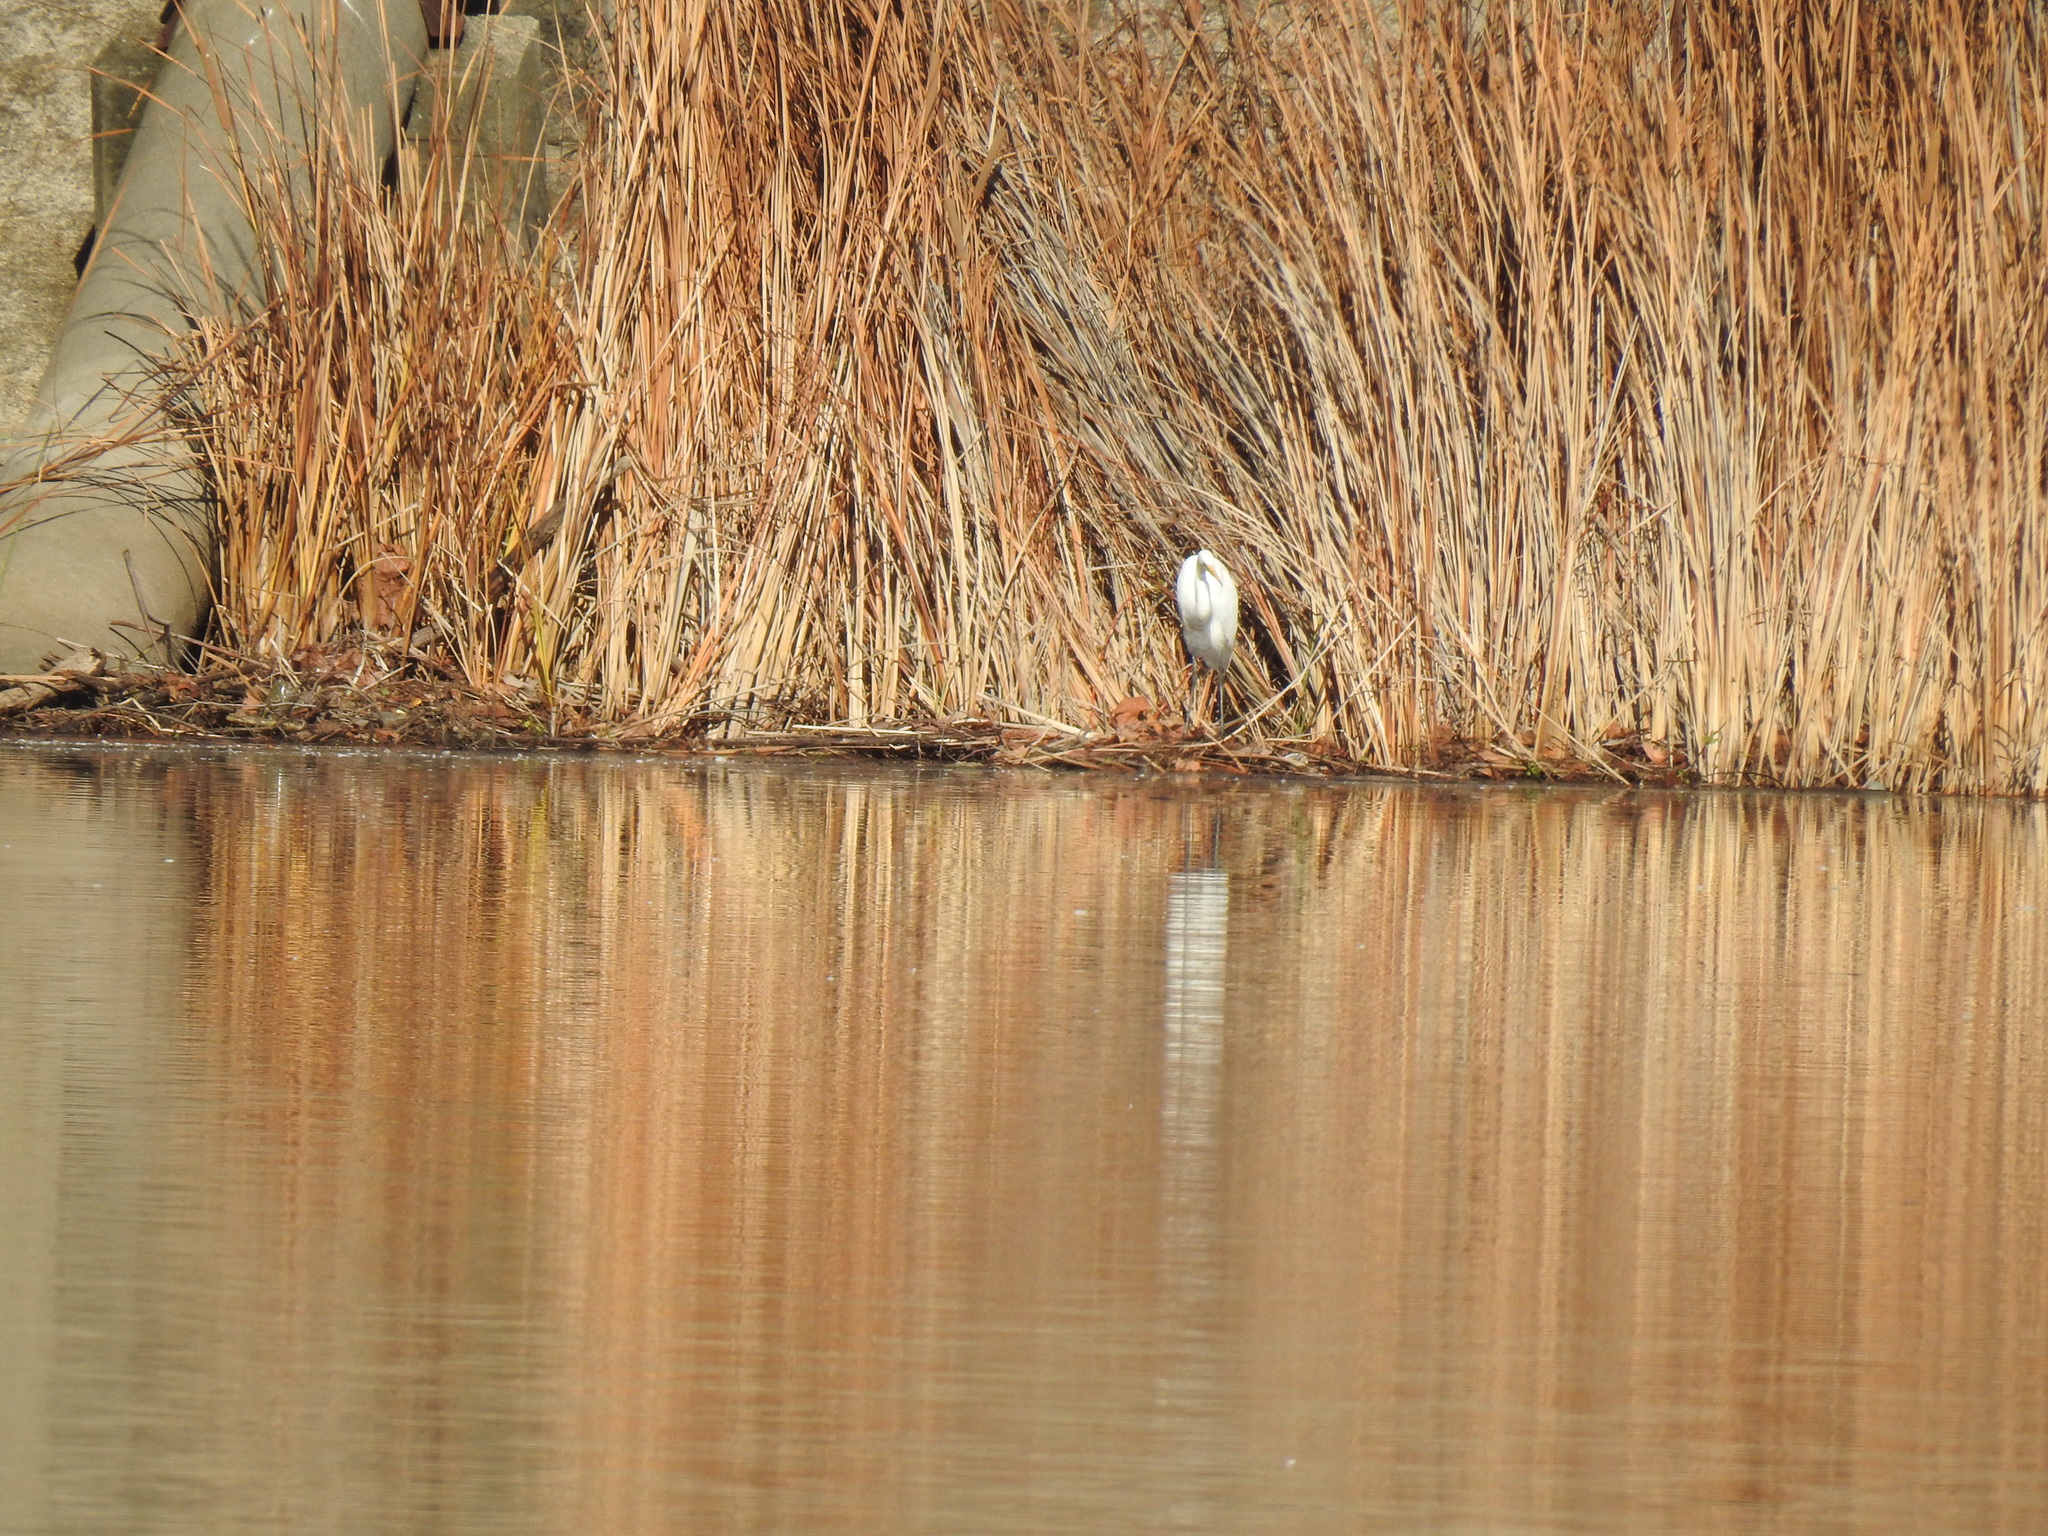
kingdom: Animalia
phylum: Chordata
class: Aves
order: Pelecaniformes
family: Ardeidae
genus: Ardea
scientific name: Ardea alba
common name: Great egret
